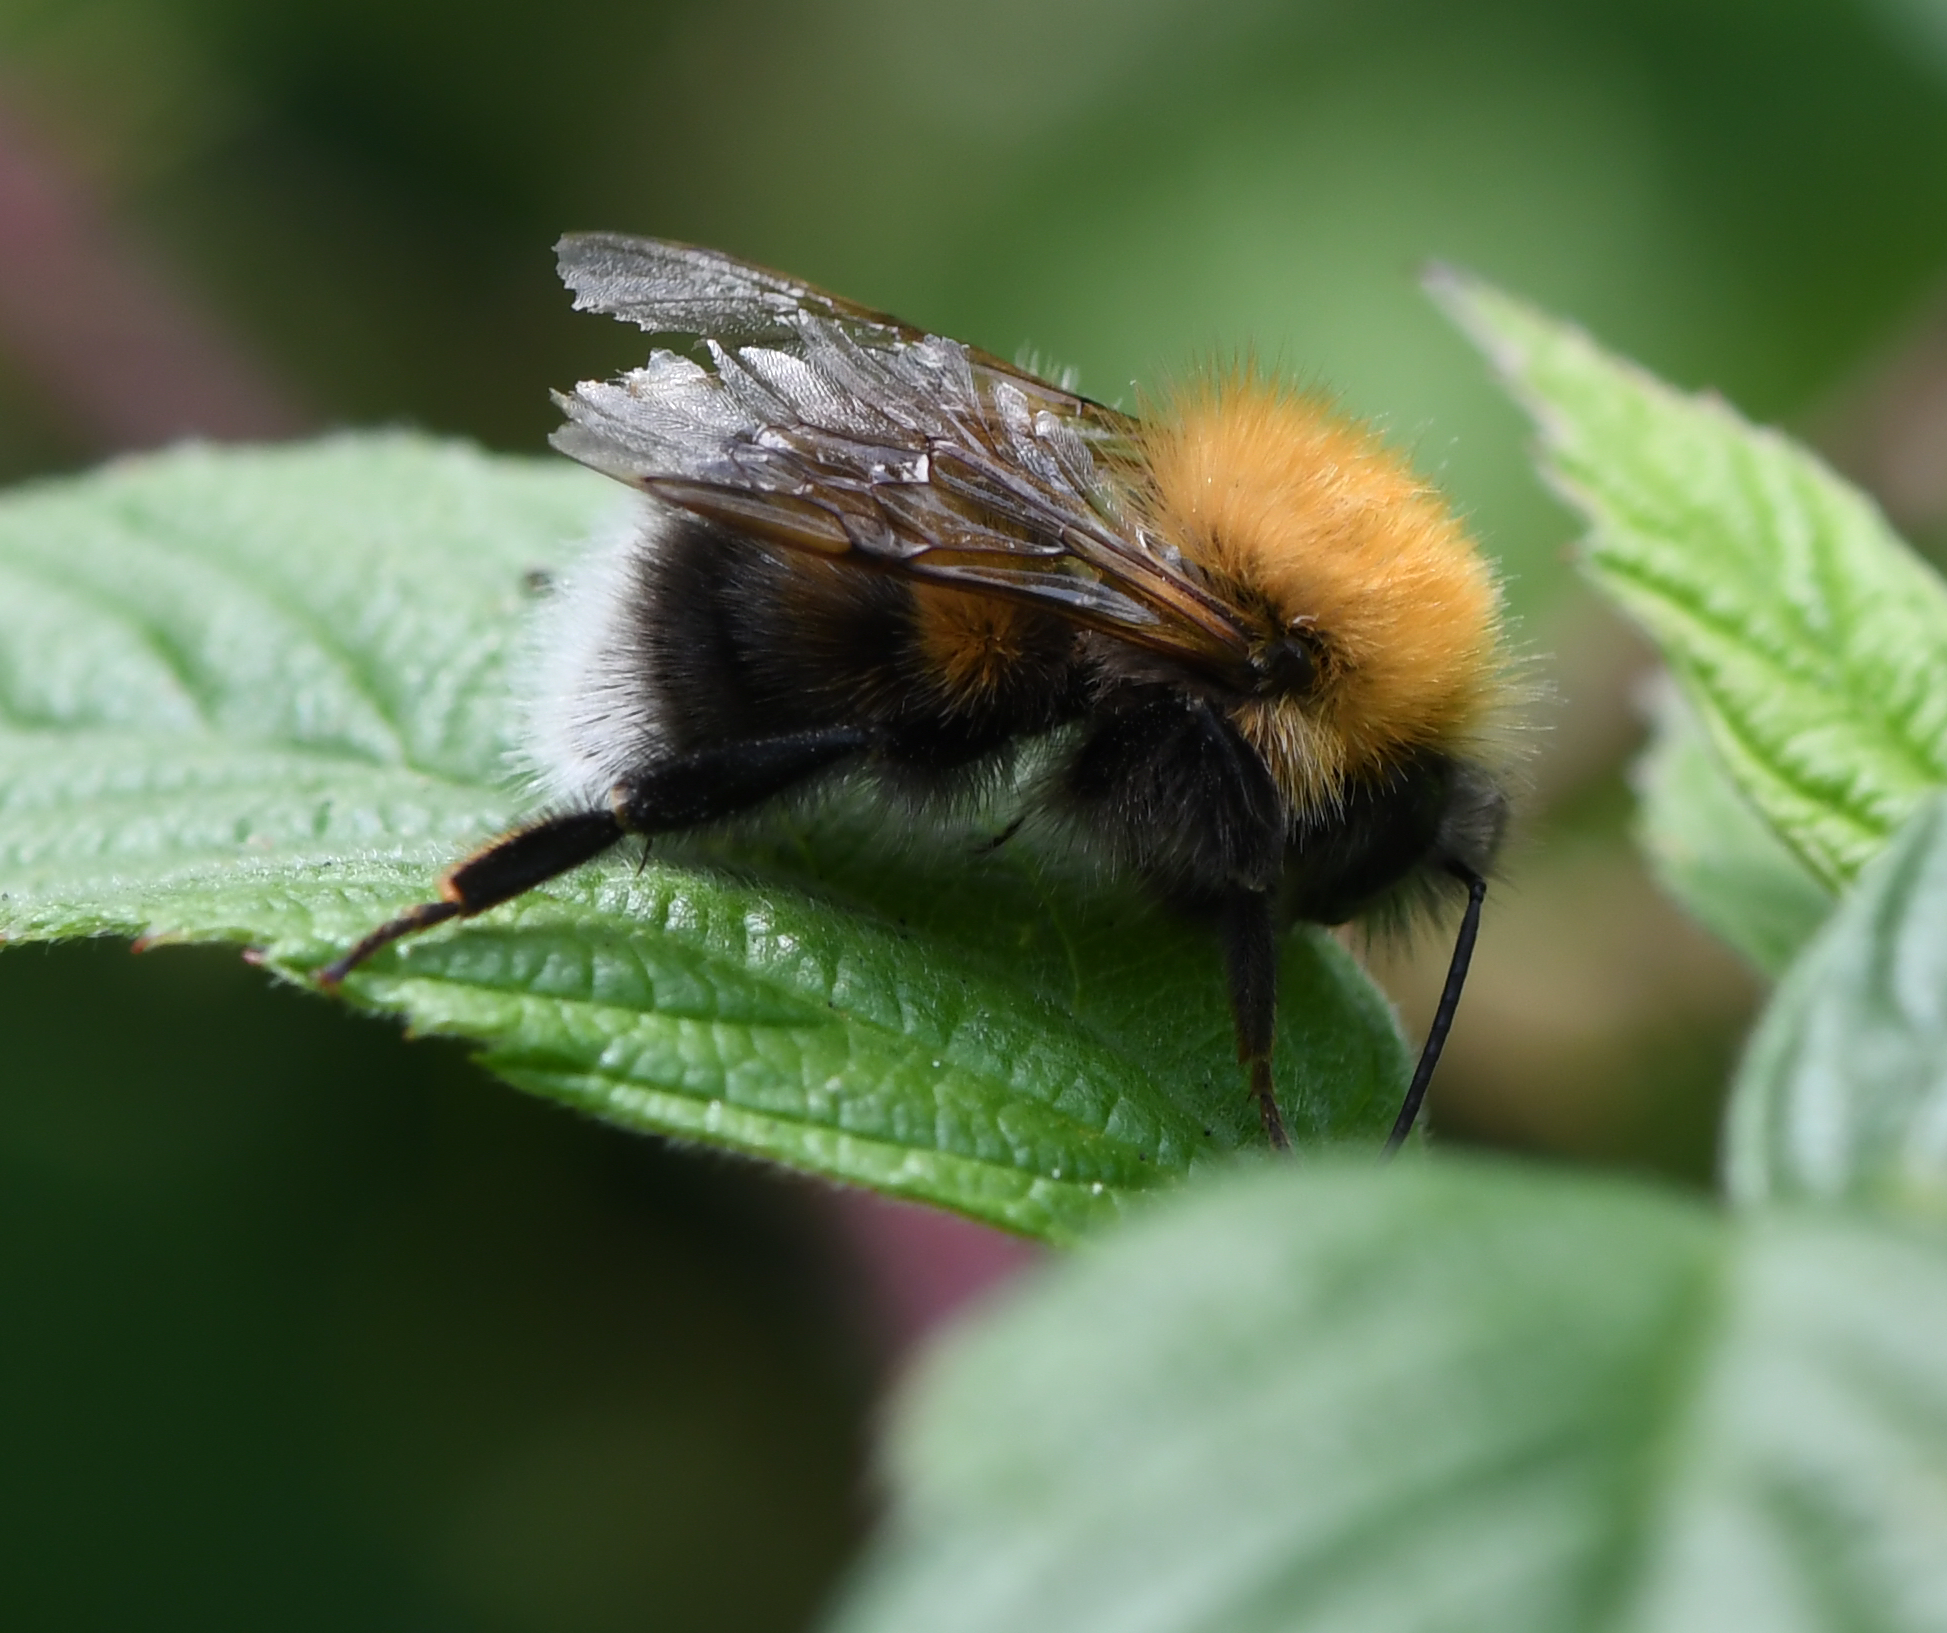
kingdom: Animalia
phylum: Arthropoda
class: Insecta
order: Hymenoptera
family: Apidae
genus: Bombus
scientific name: Bombus hypnorum
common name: New garden bumblebee
